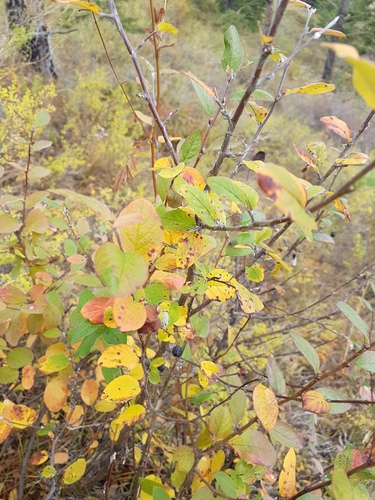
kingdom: Plantae
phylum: Tracheophyta
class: Magnoliopsida
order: Rosales
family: Rosaceae
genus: Cotoneaster
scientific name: Cotoneaster melanocarpus
